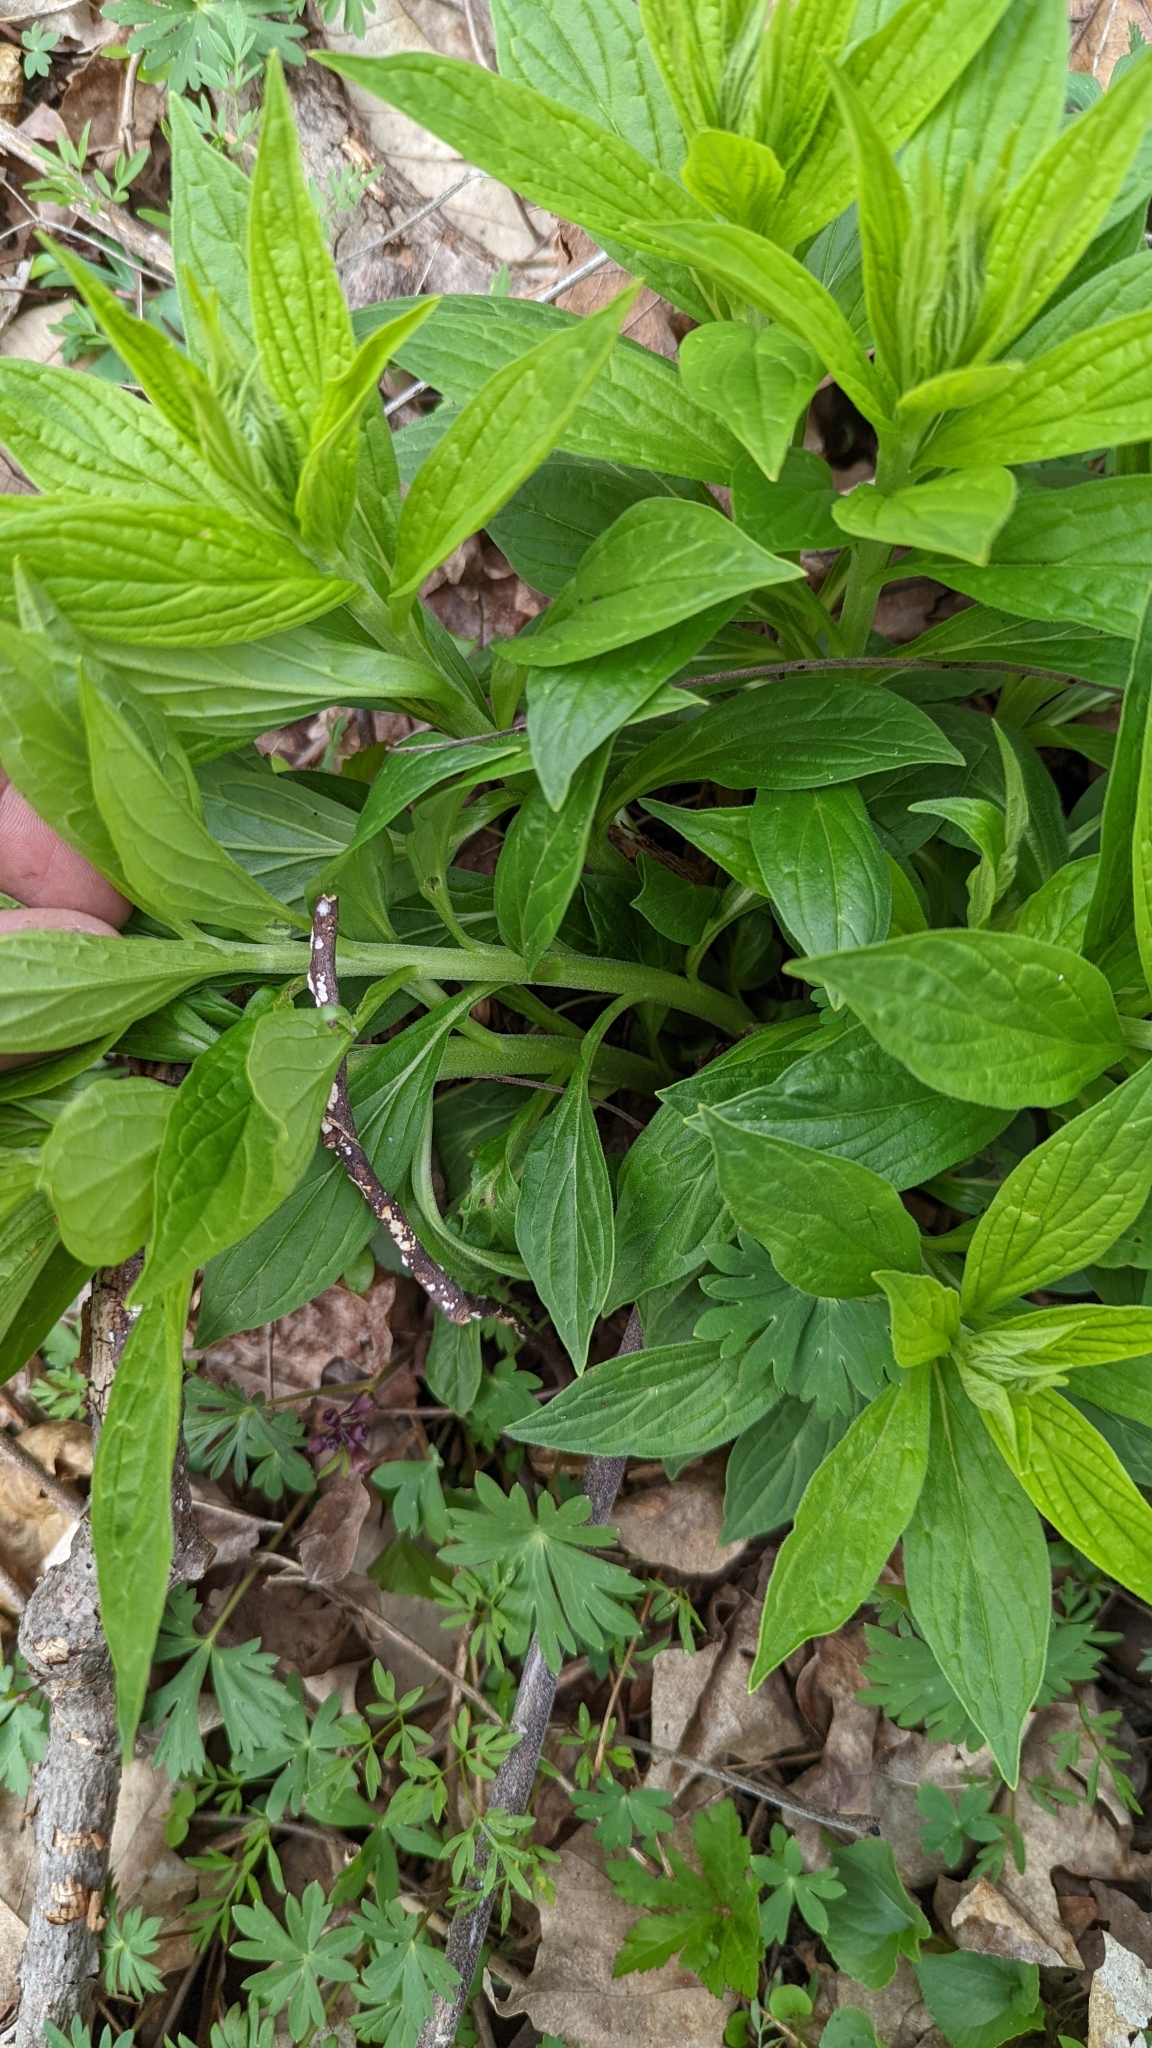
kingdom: Plantae
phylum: Tracheophyta
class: Magnoliopsida
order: Boraginales
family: Boraginaceae
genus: Lithospermum
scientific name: Lithospermum latifolium
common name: American gromwell
